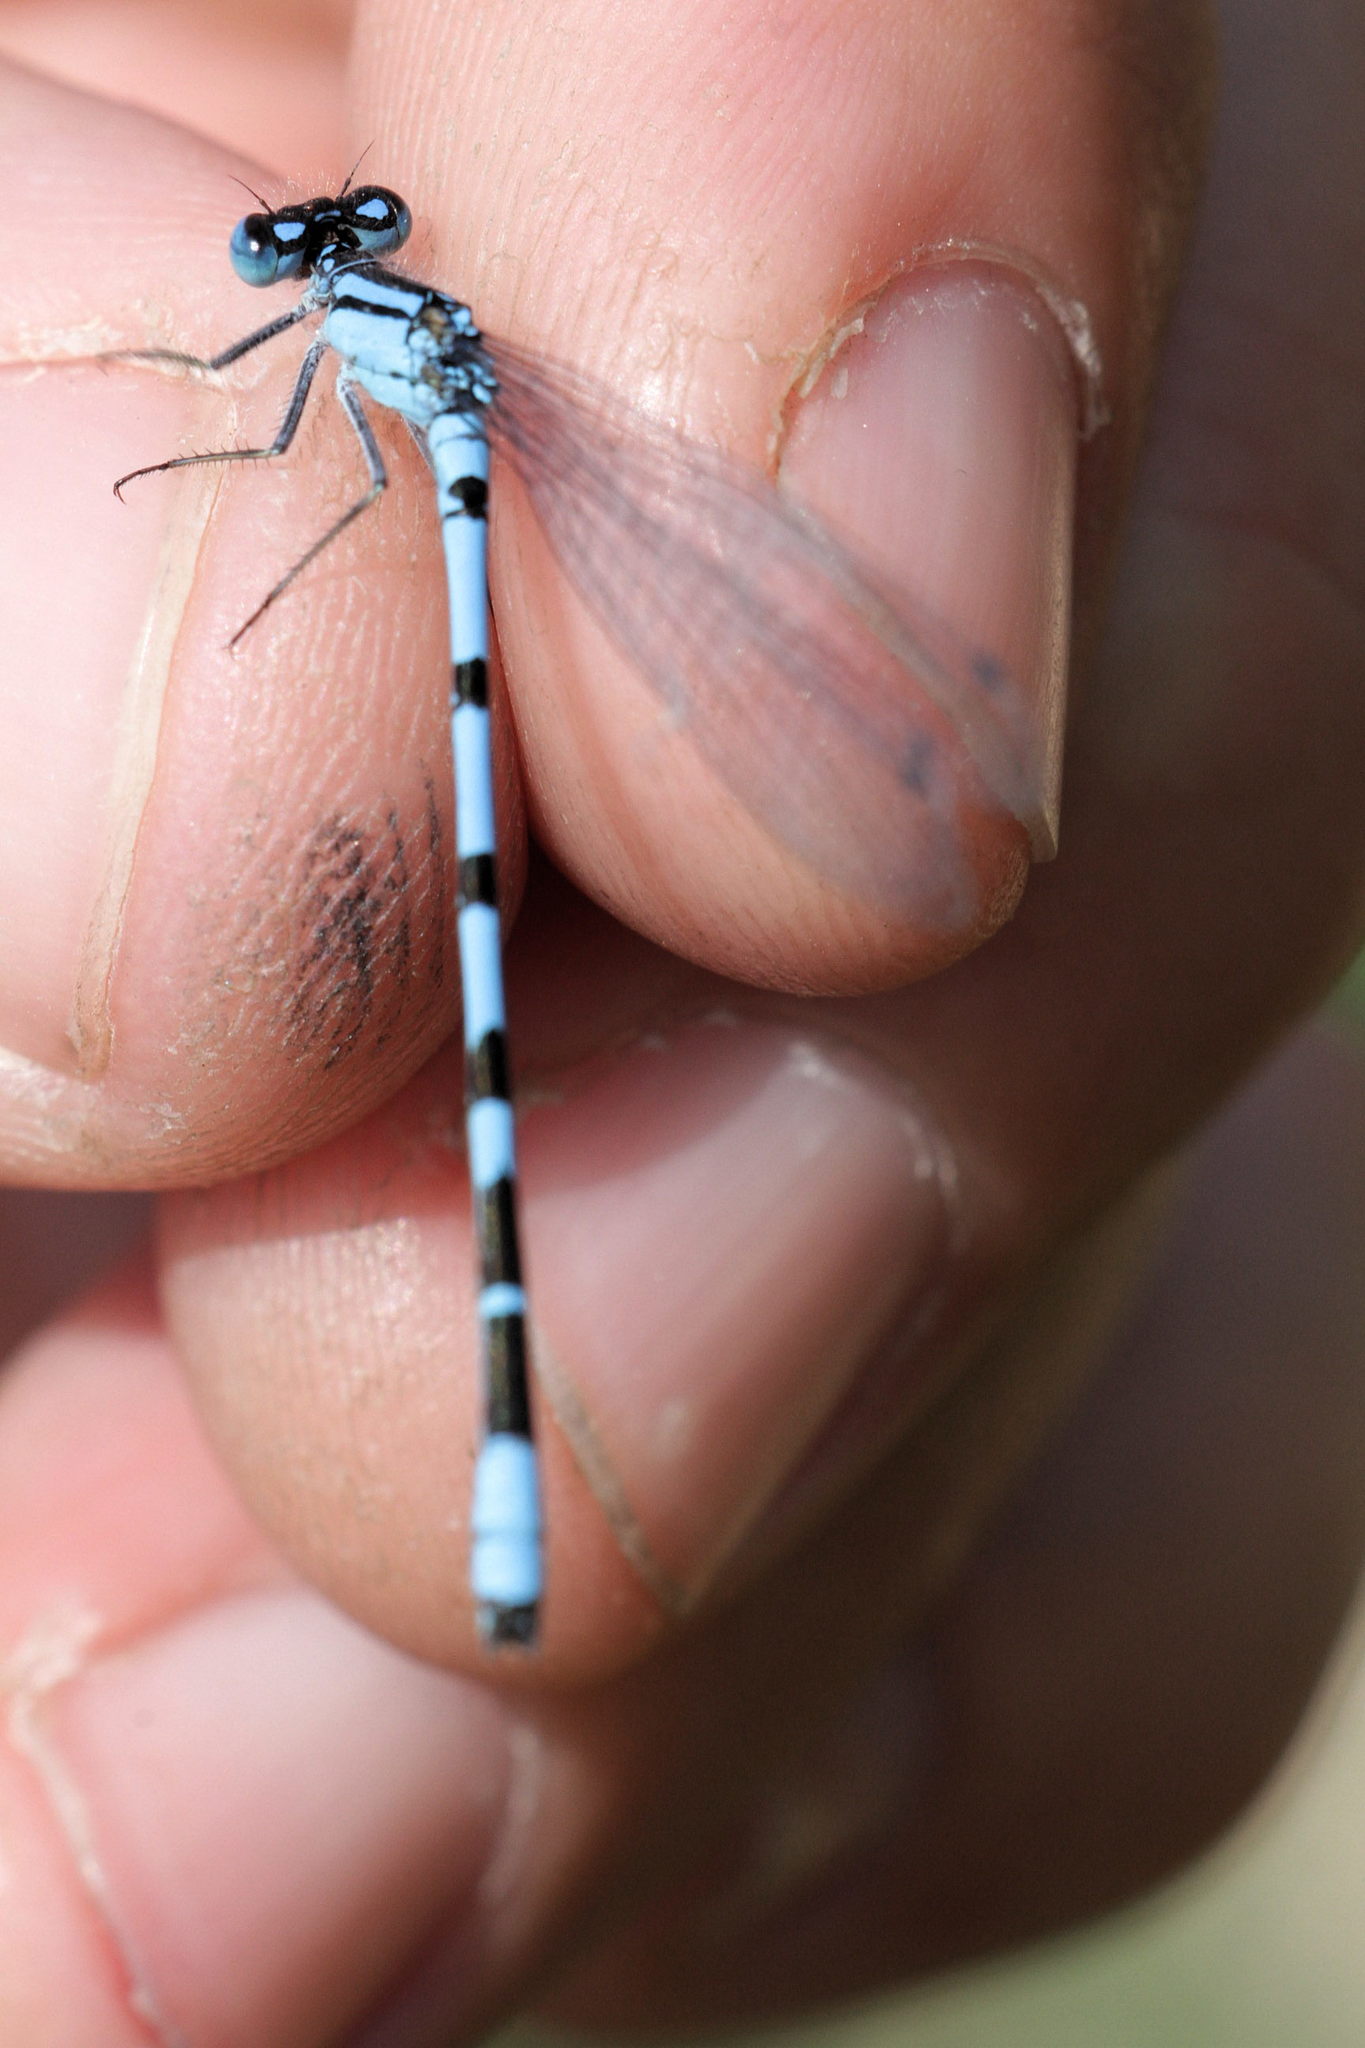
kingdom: Animalia
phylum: Arthropoda
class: Insecta
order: Odonata
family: Coenagrionidae
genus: Enallagma
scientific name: Enallagma cyathigerum
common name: Common blue damselfly
